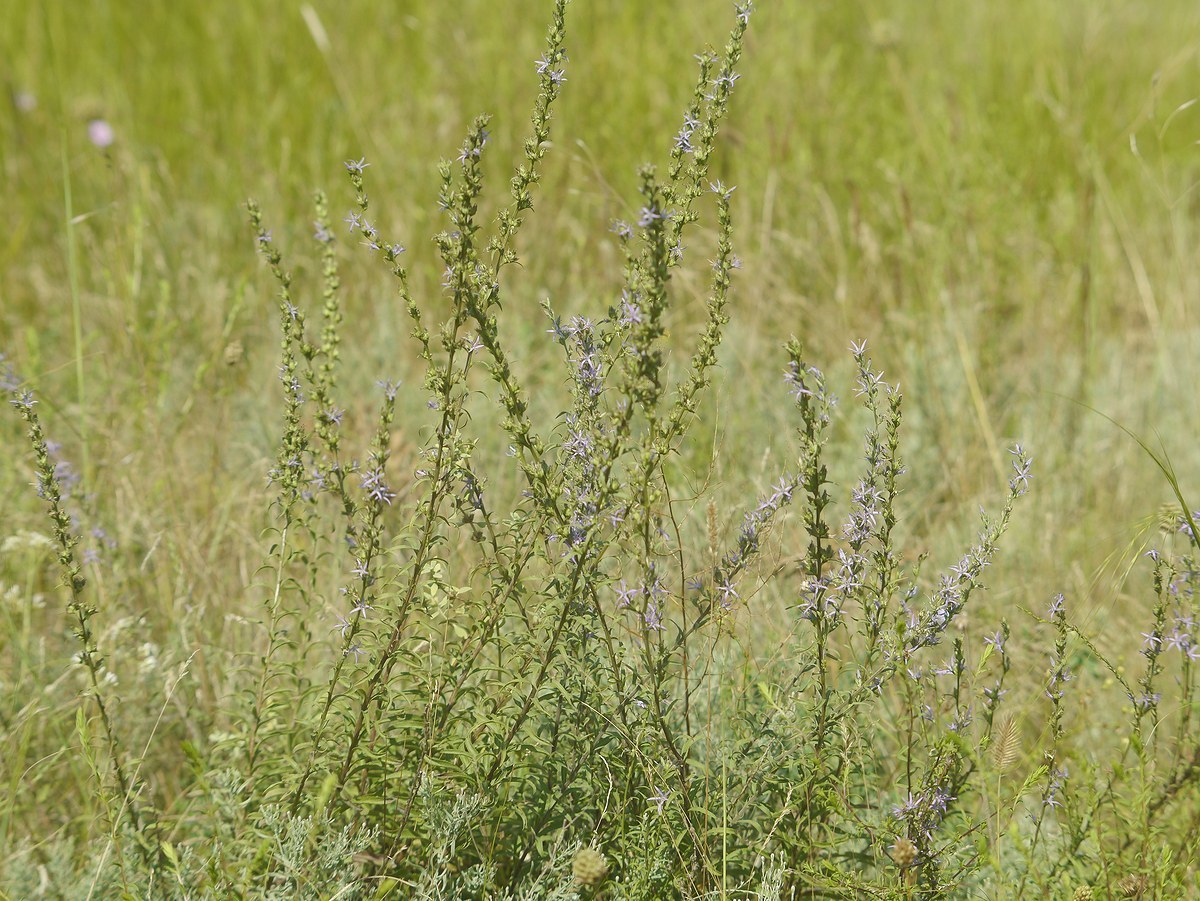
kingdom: Plantae
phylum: Tracheophyta
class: Magnoliopsida
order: Asterales
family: Campanulaceae
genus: Asyneuma
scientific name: Asyneuma canescens
